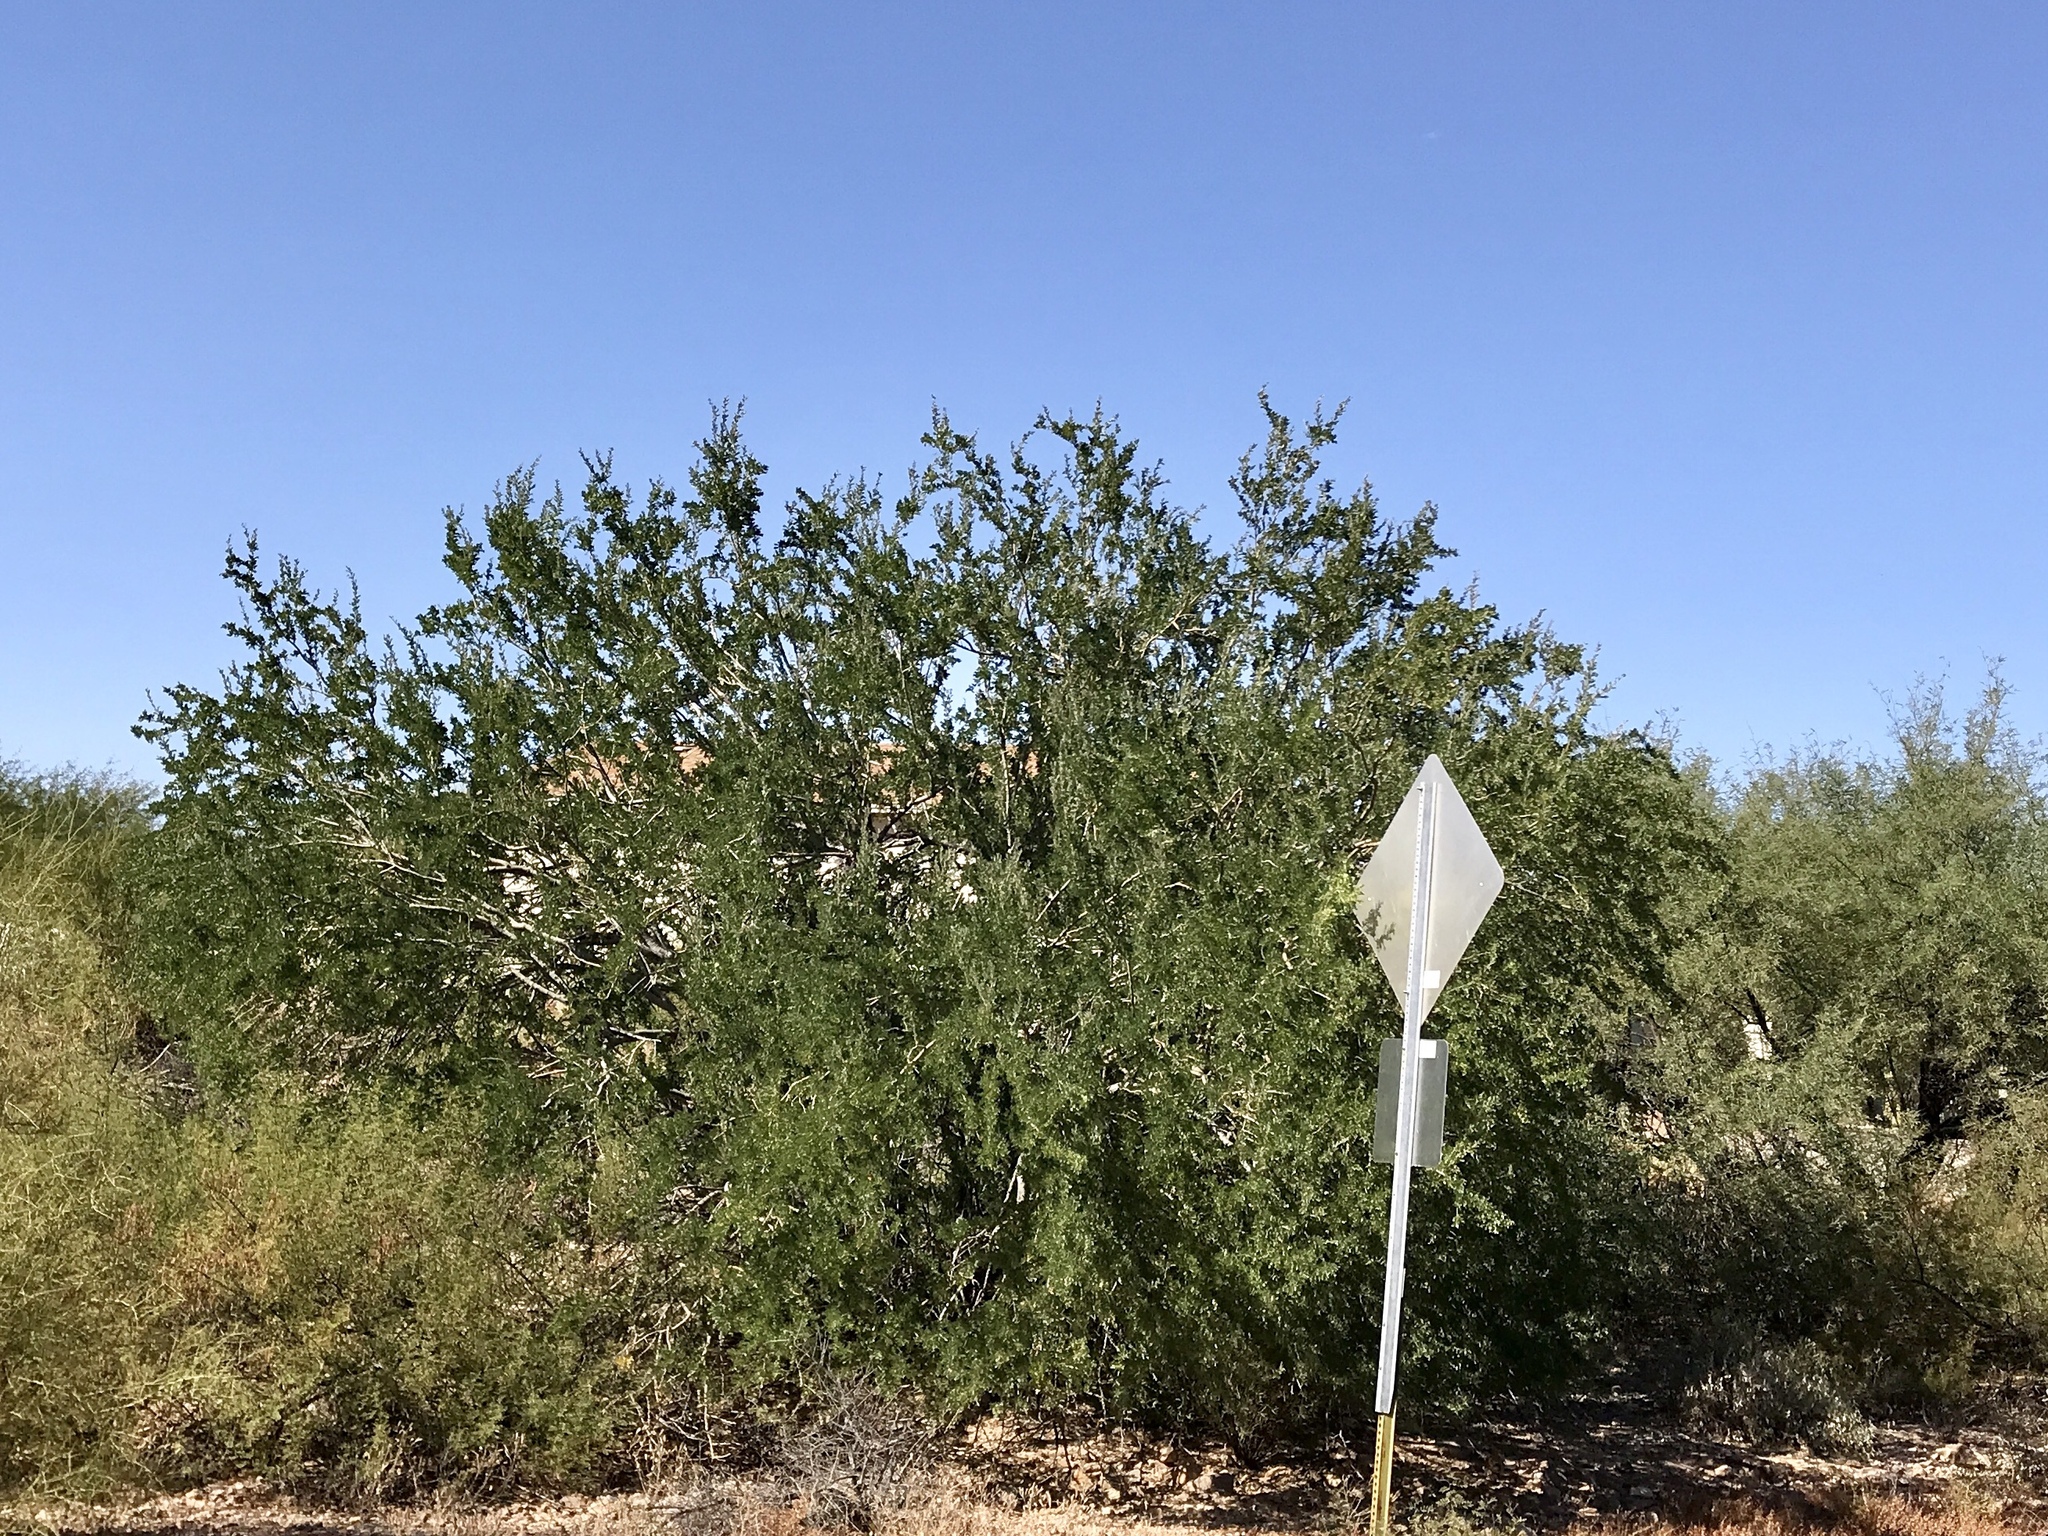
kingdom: Plantae
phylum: Tracheophyta
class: Magnoliopsida
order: Fabales
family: Fabaceae
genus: Olneya
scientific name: Olneya tesota
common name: Desert ironwood
